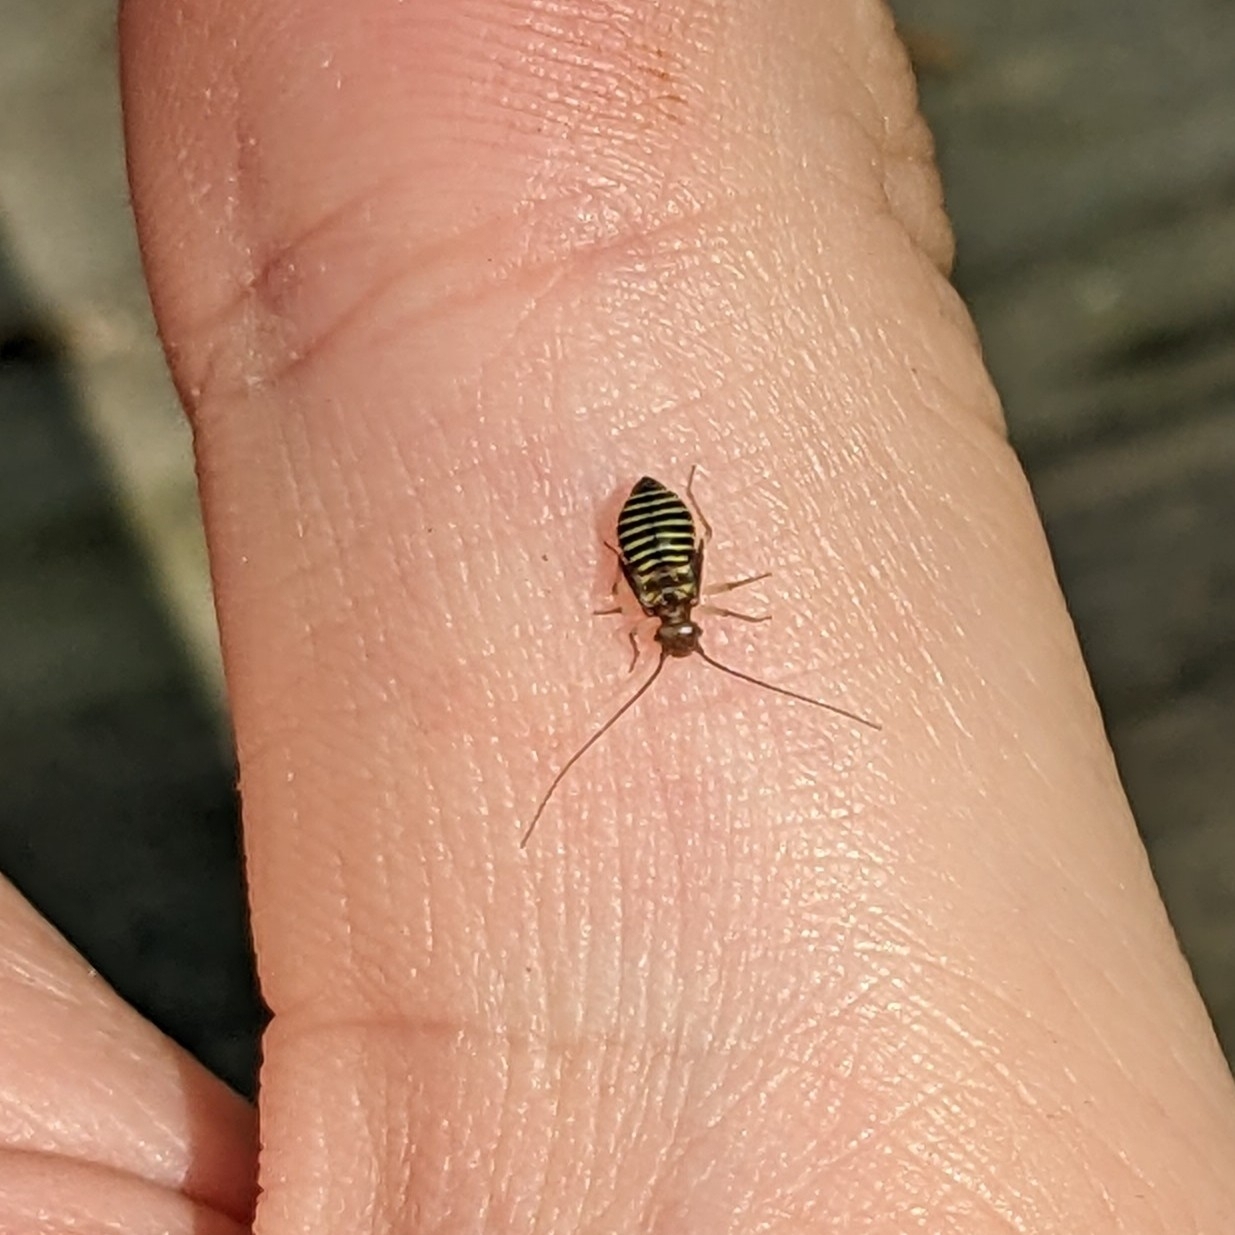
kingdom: Animalia
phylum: Arthropoda
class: Insecta
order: Psocodea
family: Psocidae
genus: Cerastipsocus
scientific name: Cerastipsocus venosus
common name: Tree cattle
